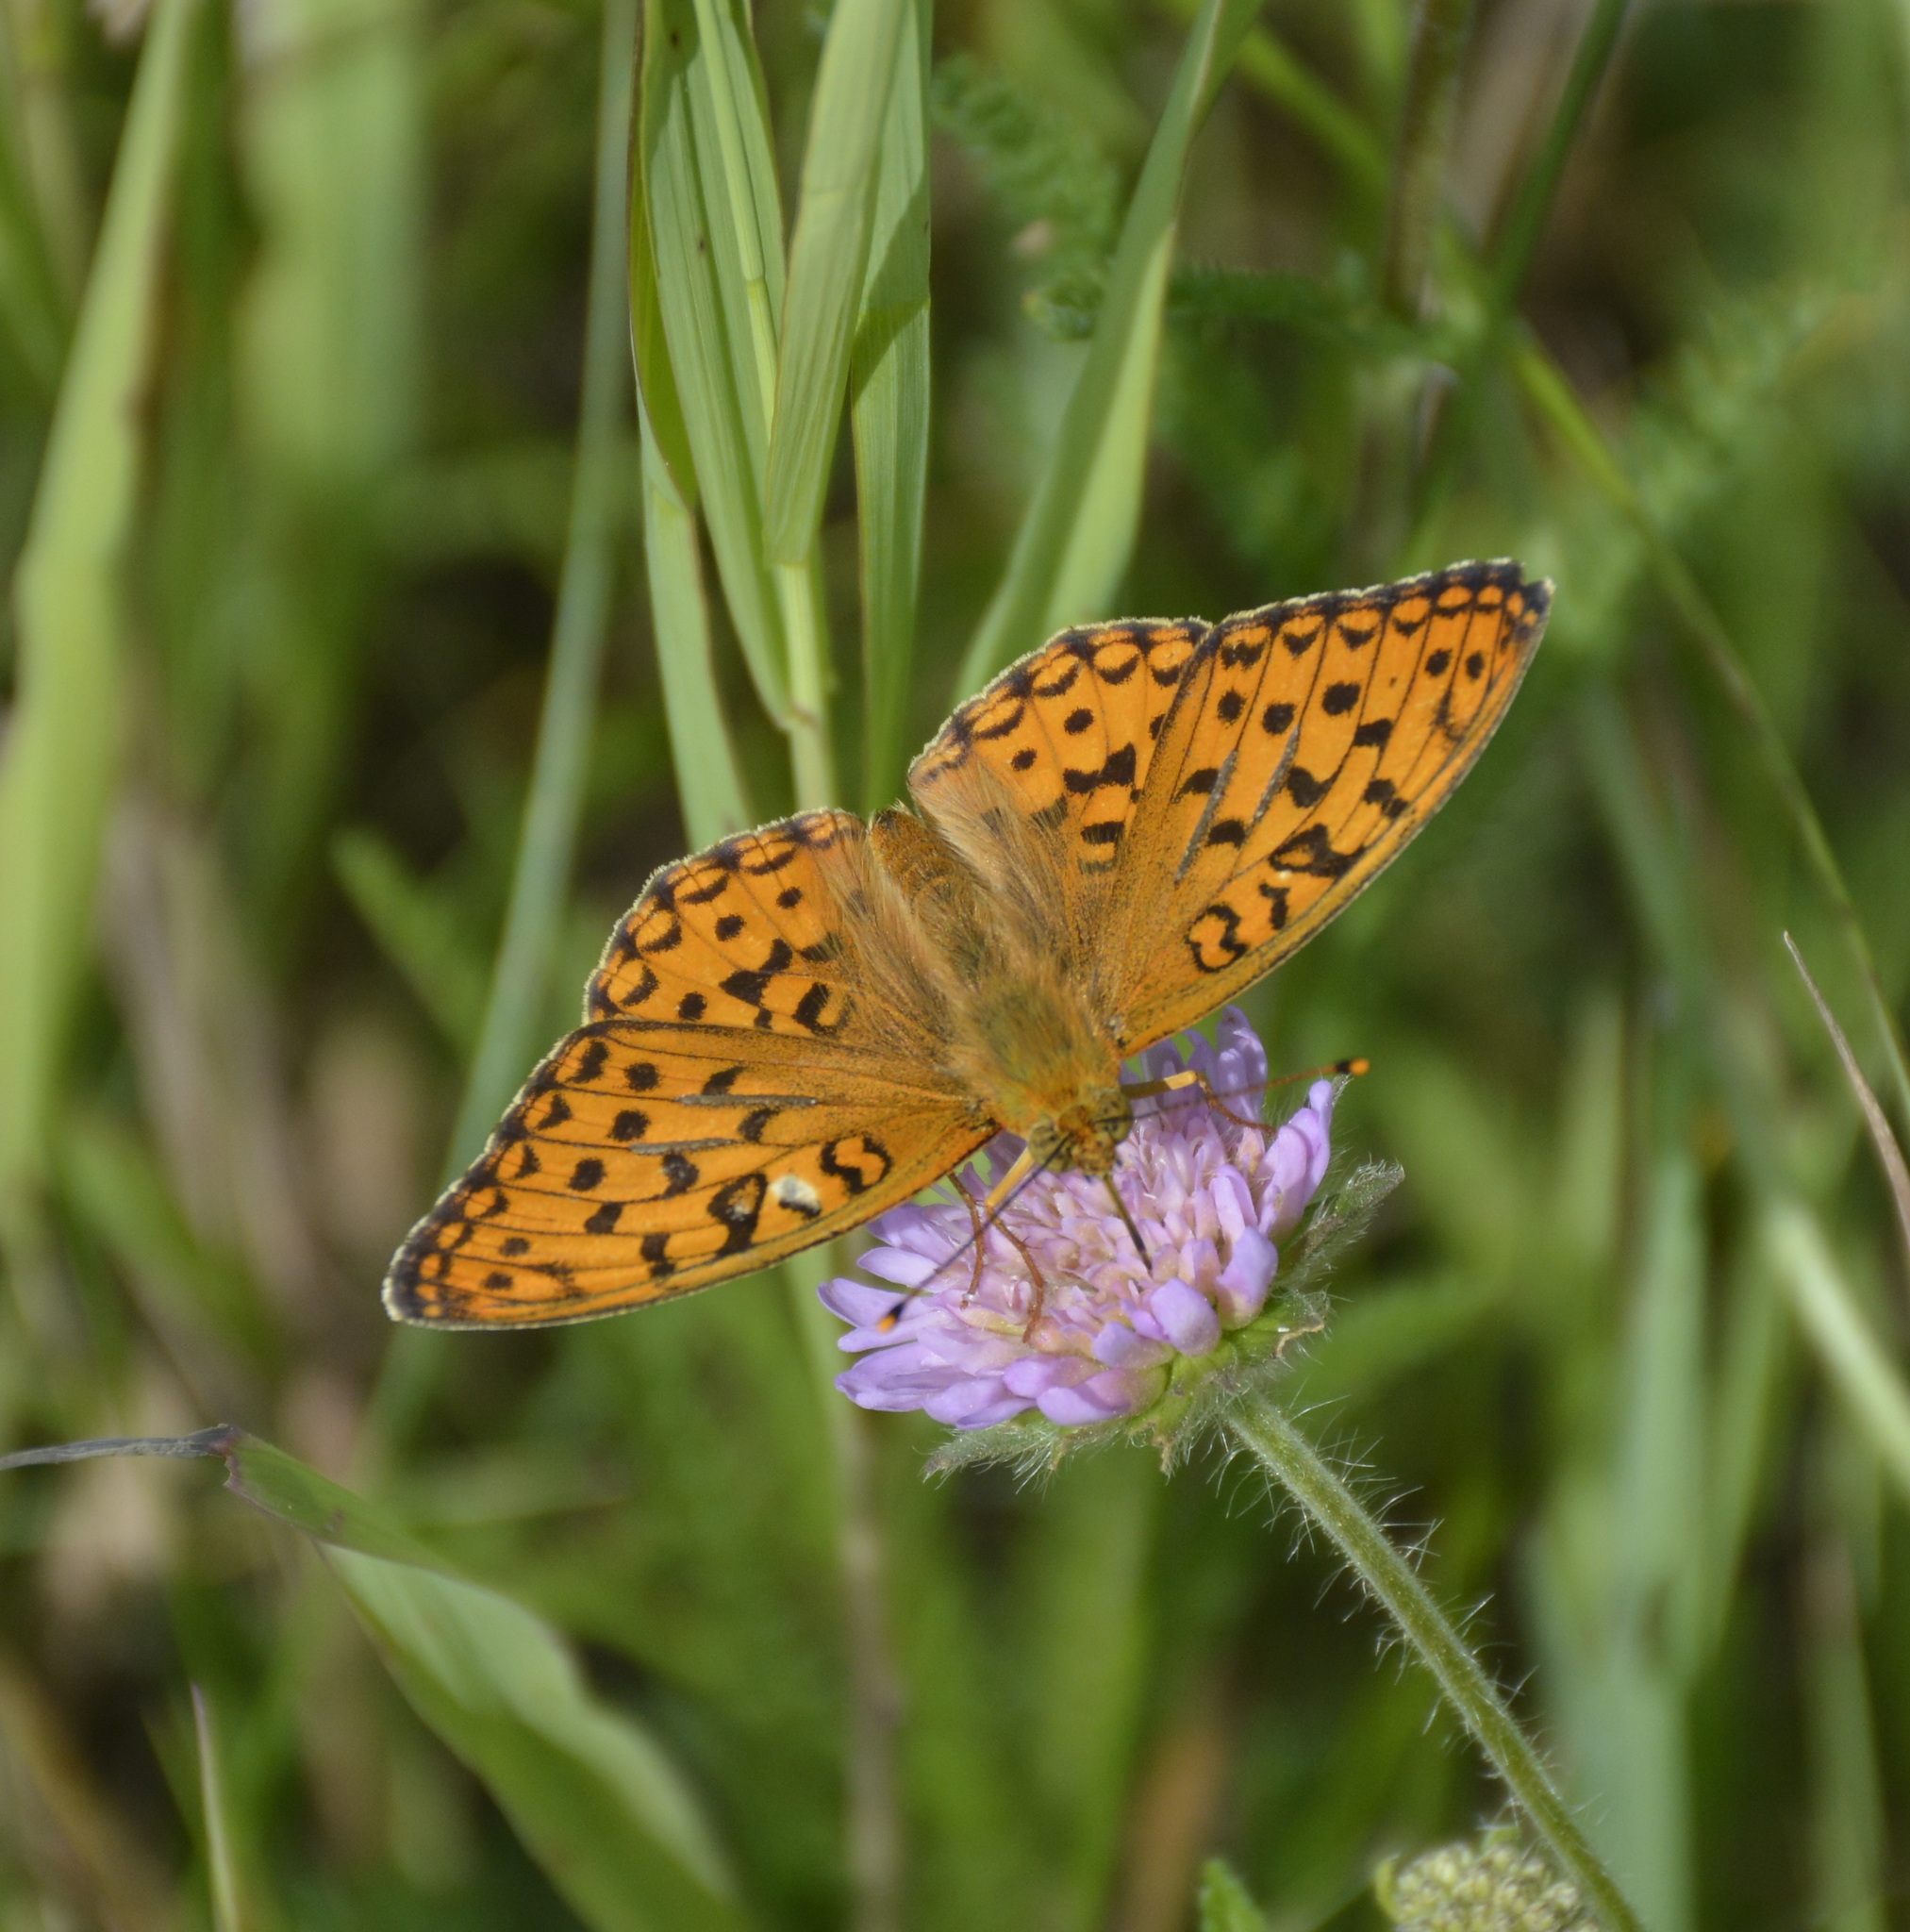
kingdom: Animalia
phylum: Arthropoda
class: Insecta
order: Lepidoptera
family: Nymphalidae
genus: Fabriciana
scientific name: Fabriciana adippe
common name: High brown fritillary
